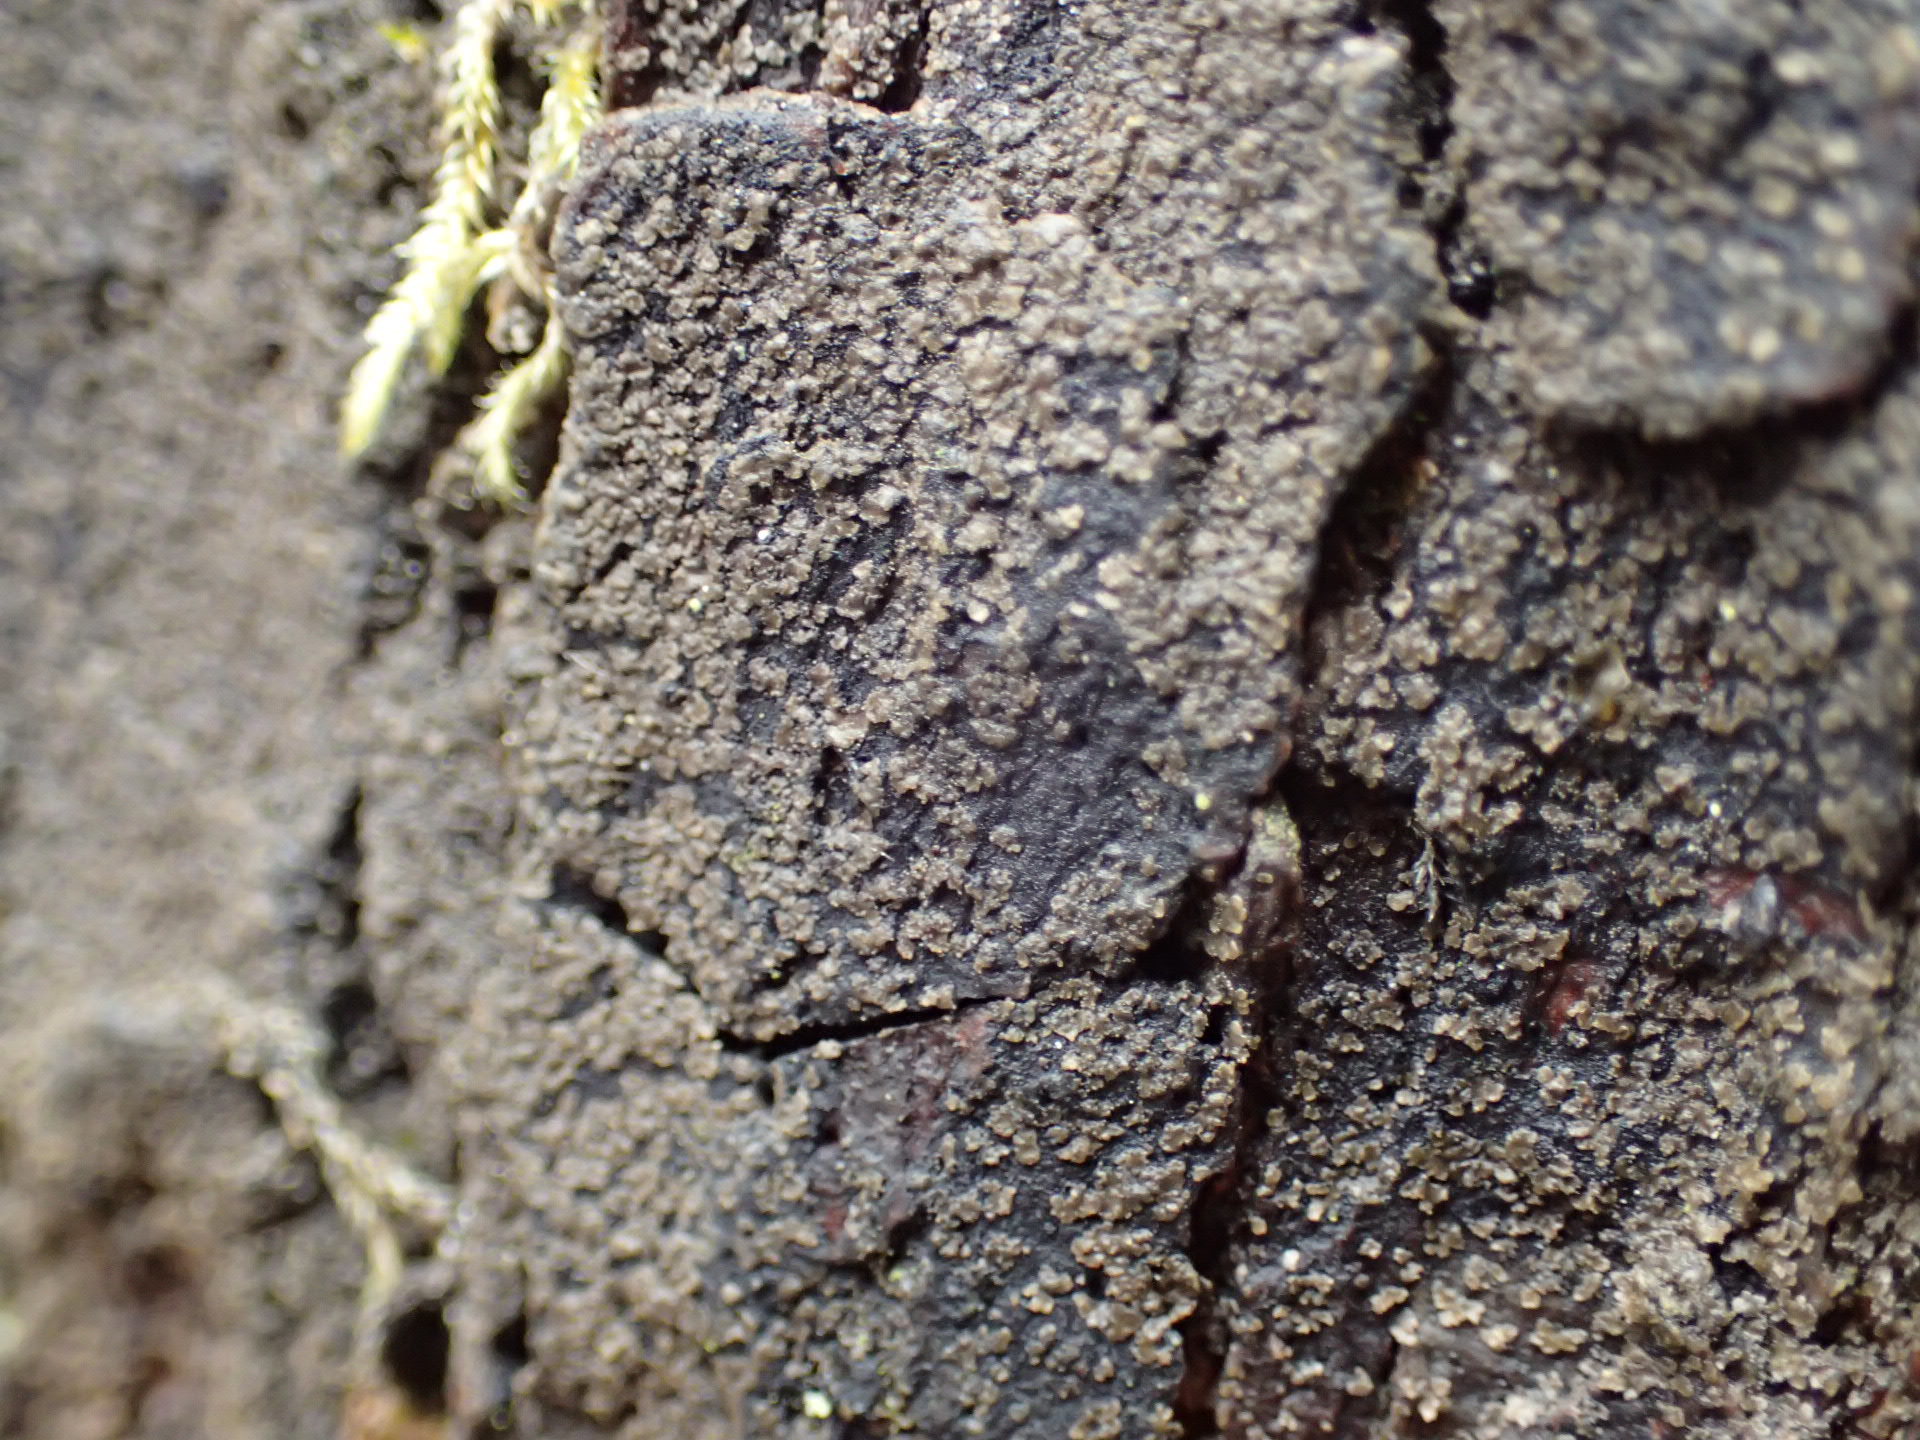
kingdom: Fungi
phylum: Ascomycota
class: Lecanoromycetes
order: Peltigerales
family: Pannariaceae
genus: Parmeliella
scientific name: Parmeliella thriptophylla
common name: Black-bordered shingle lichen
